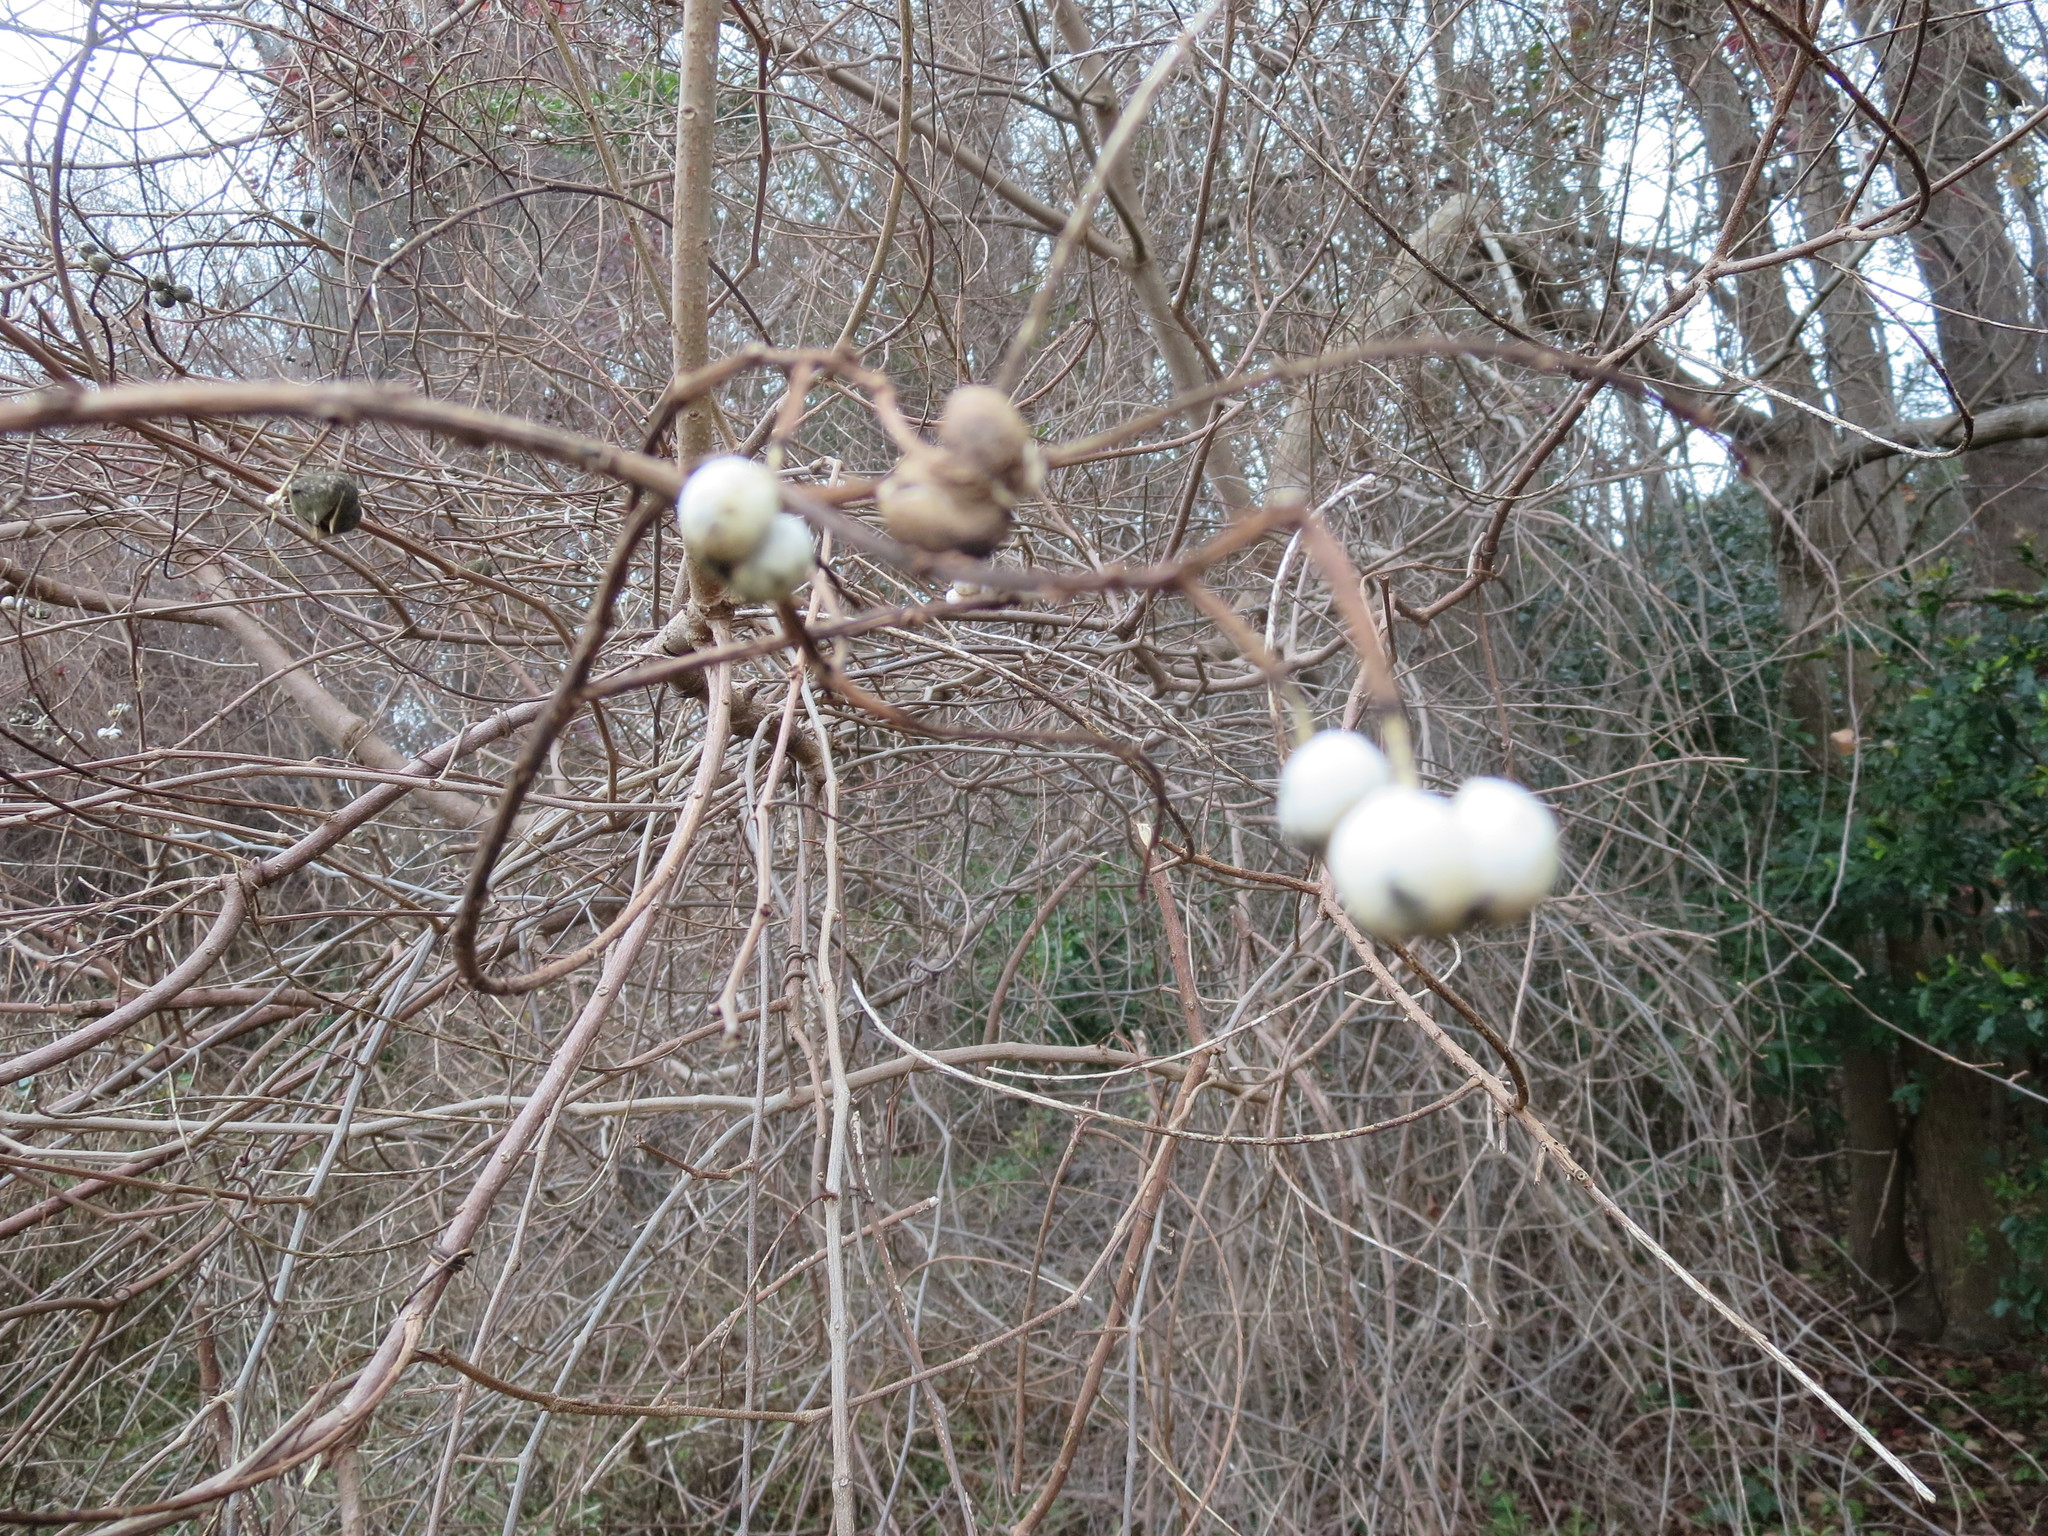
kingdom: Plantae
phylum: Tracheophyta
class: Magnoliopsida
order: Malpighiales
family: Euphorbiaceae
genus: Triadica
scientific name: Triadica sebifera
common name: Chinese tallow
